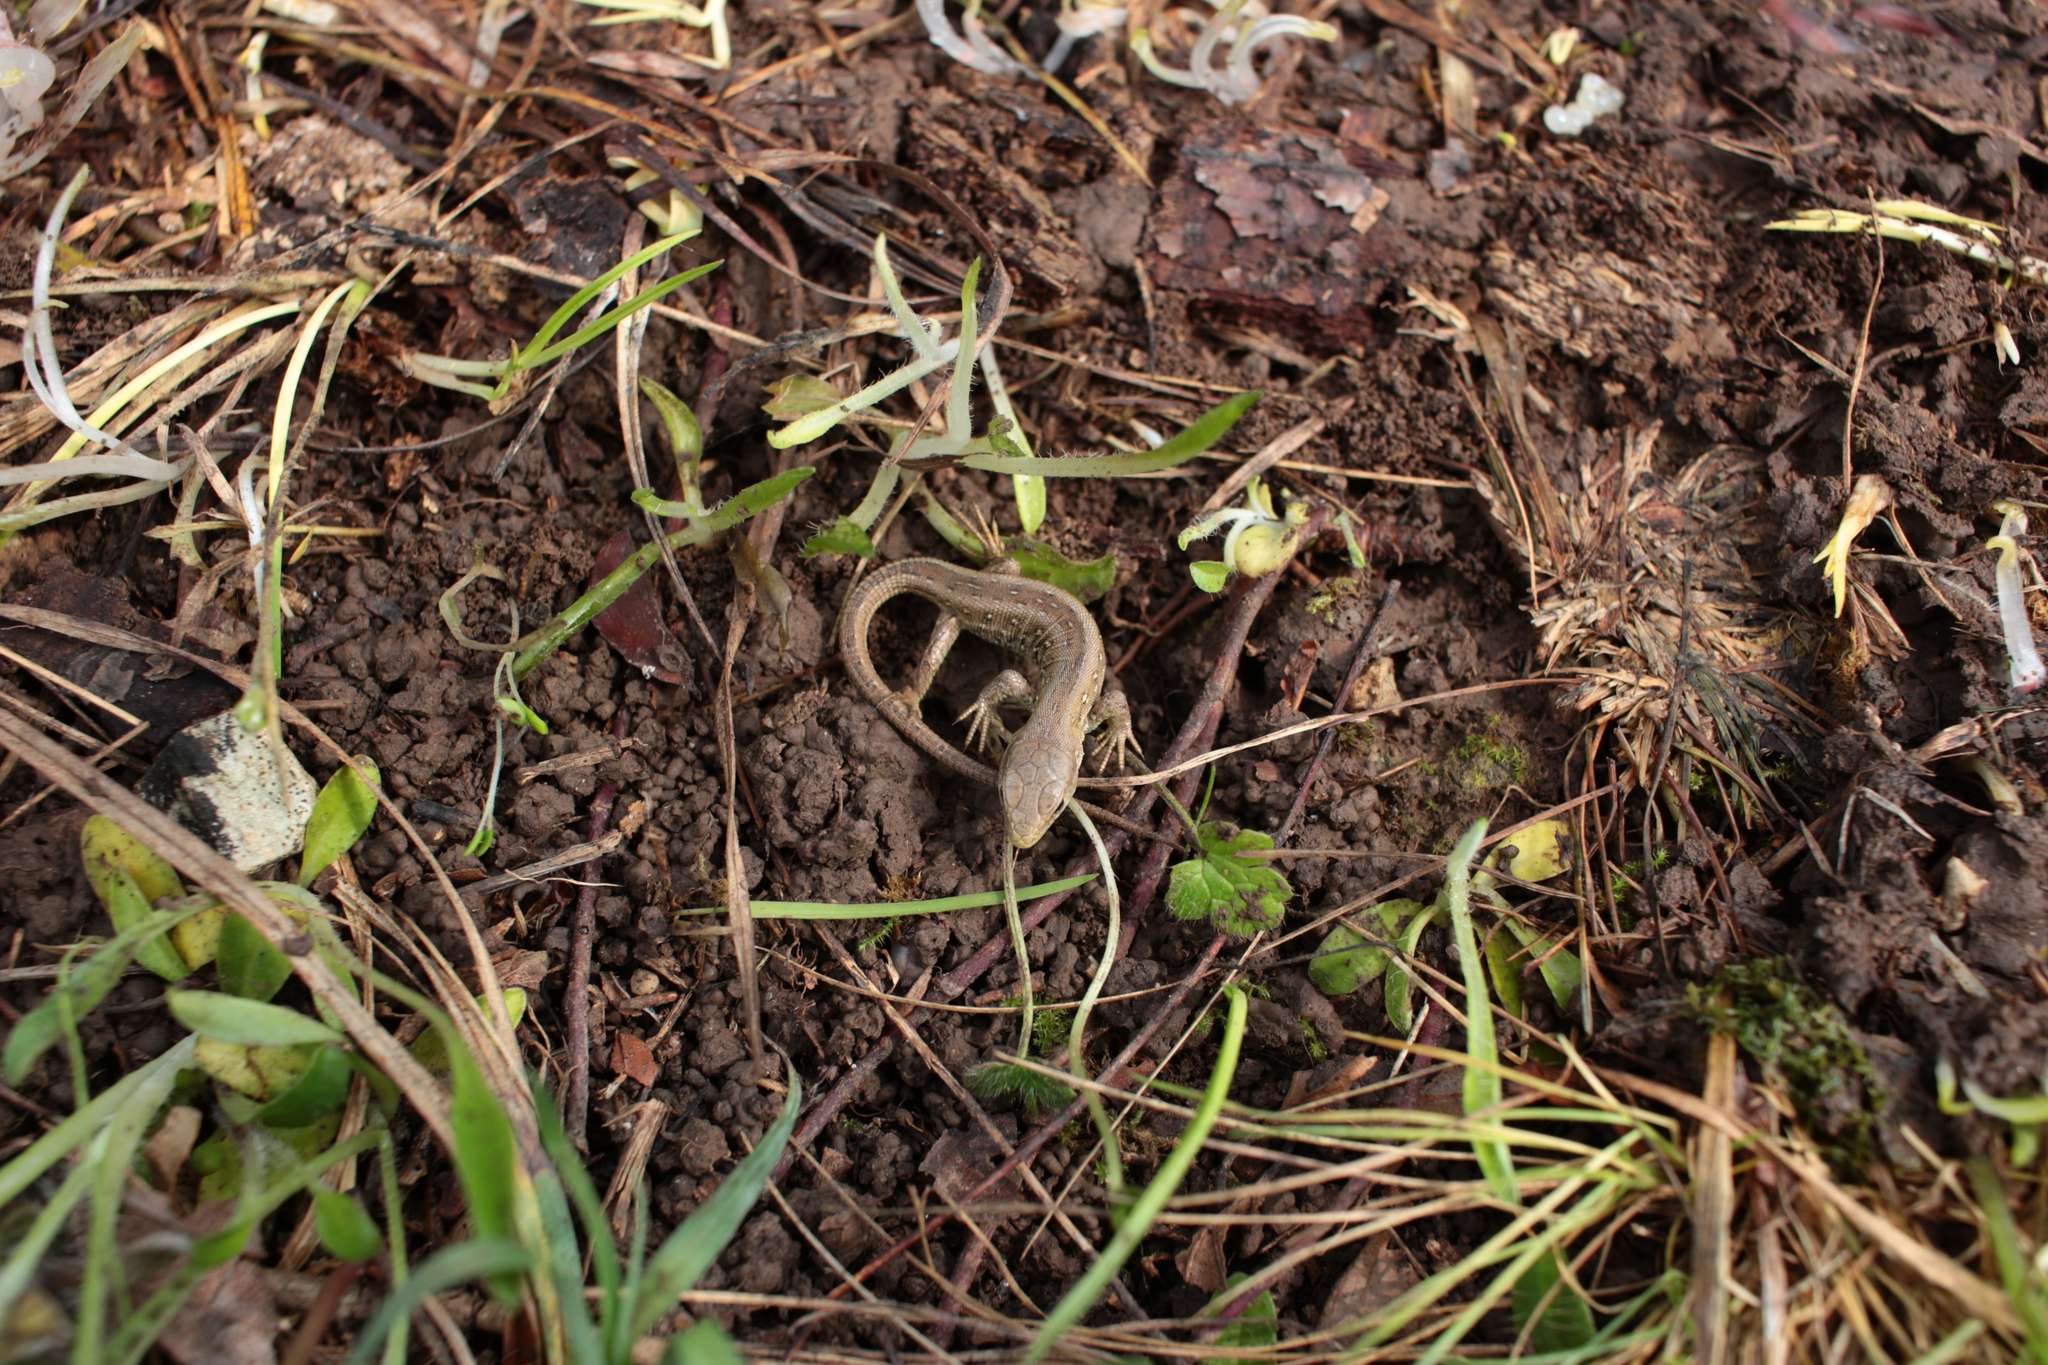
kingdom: Animalia
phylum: Chordata
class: Squamata
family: Lacertidae
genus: Lacerta
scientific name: Lacerta agilis
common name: Sand lizard
